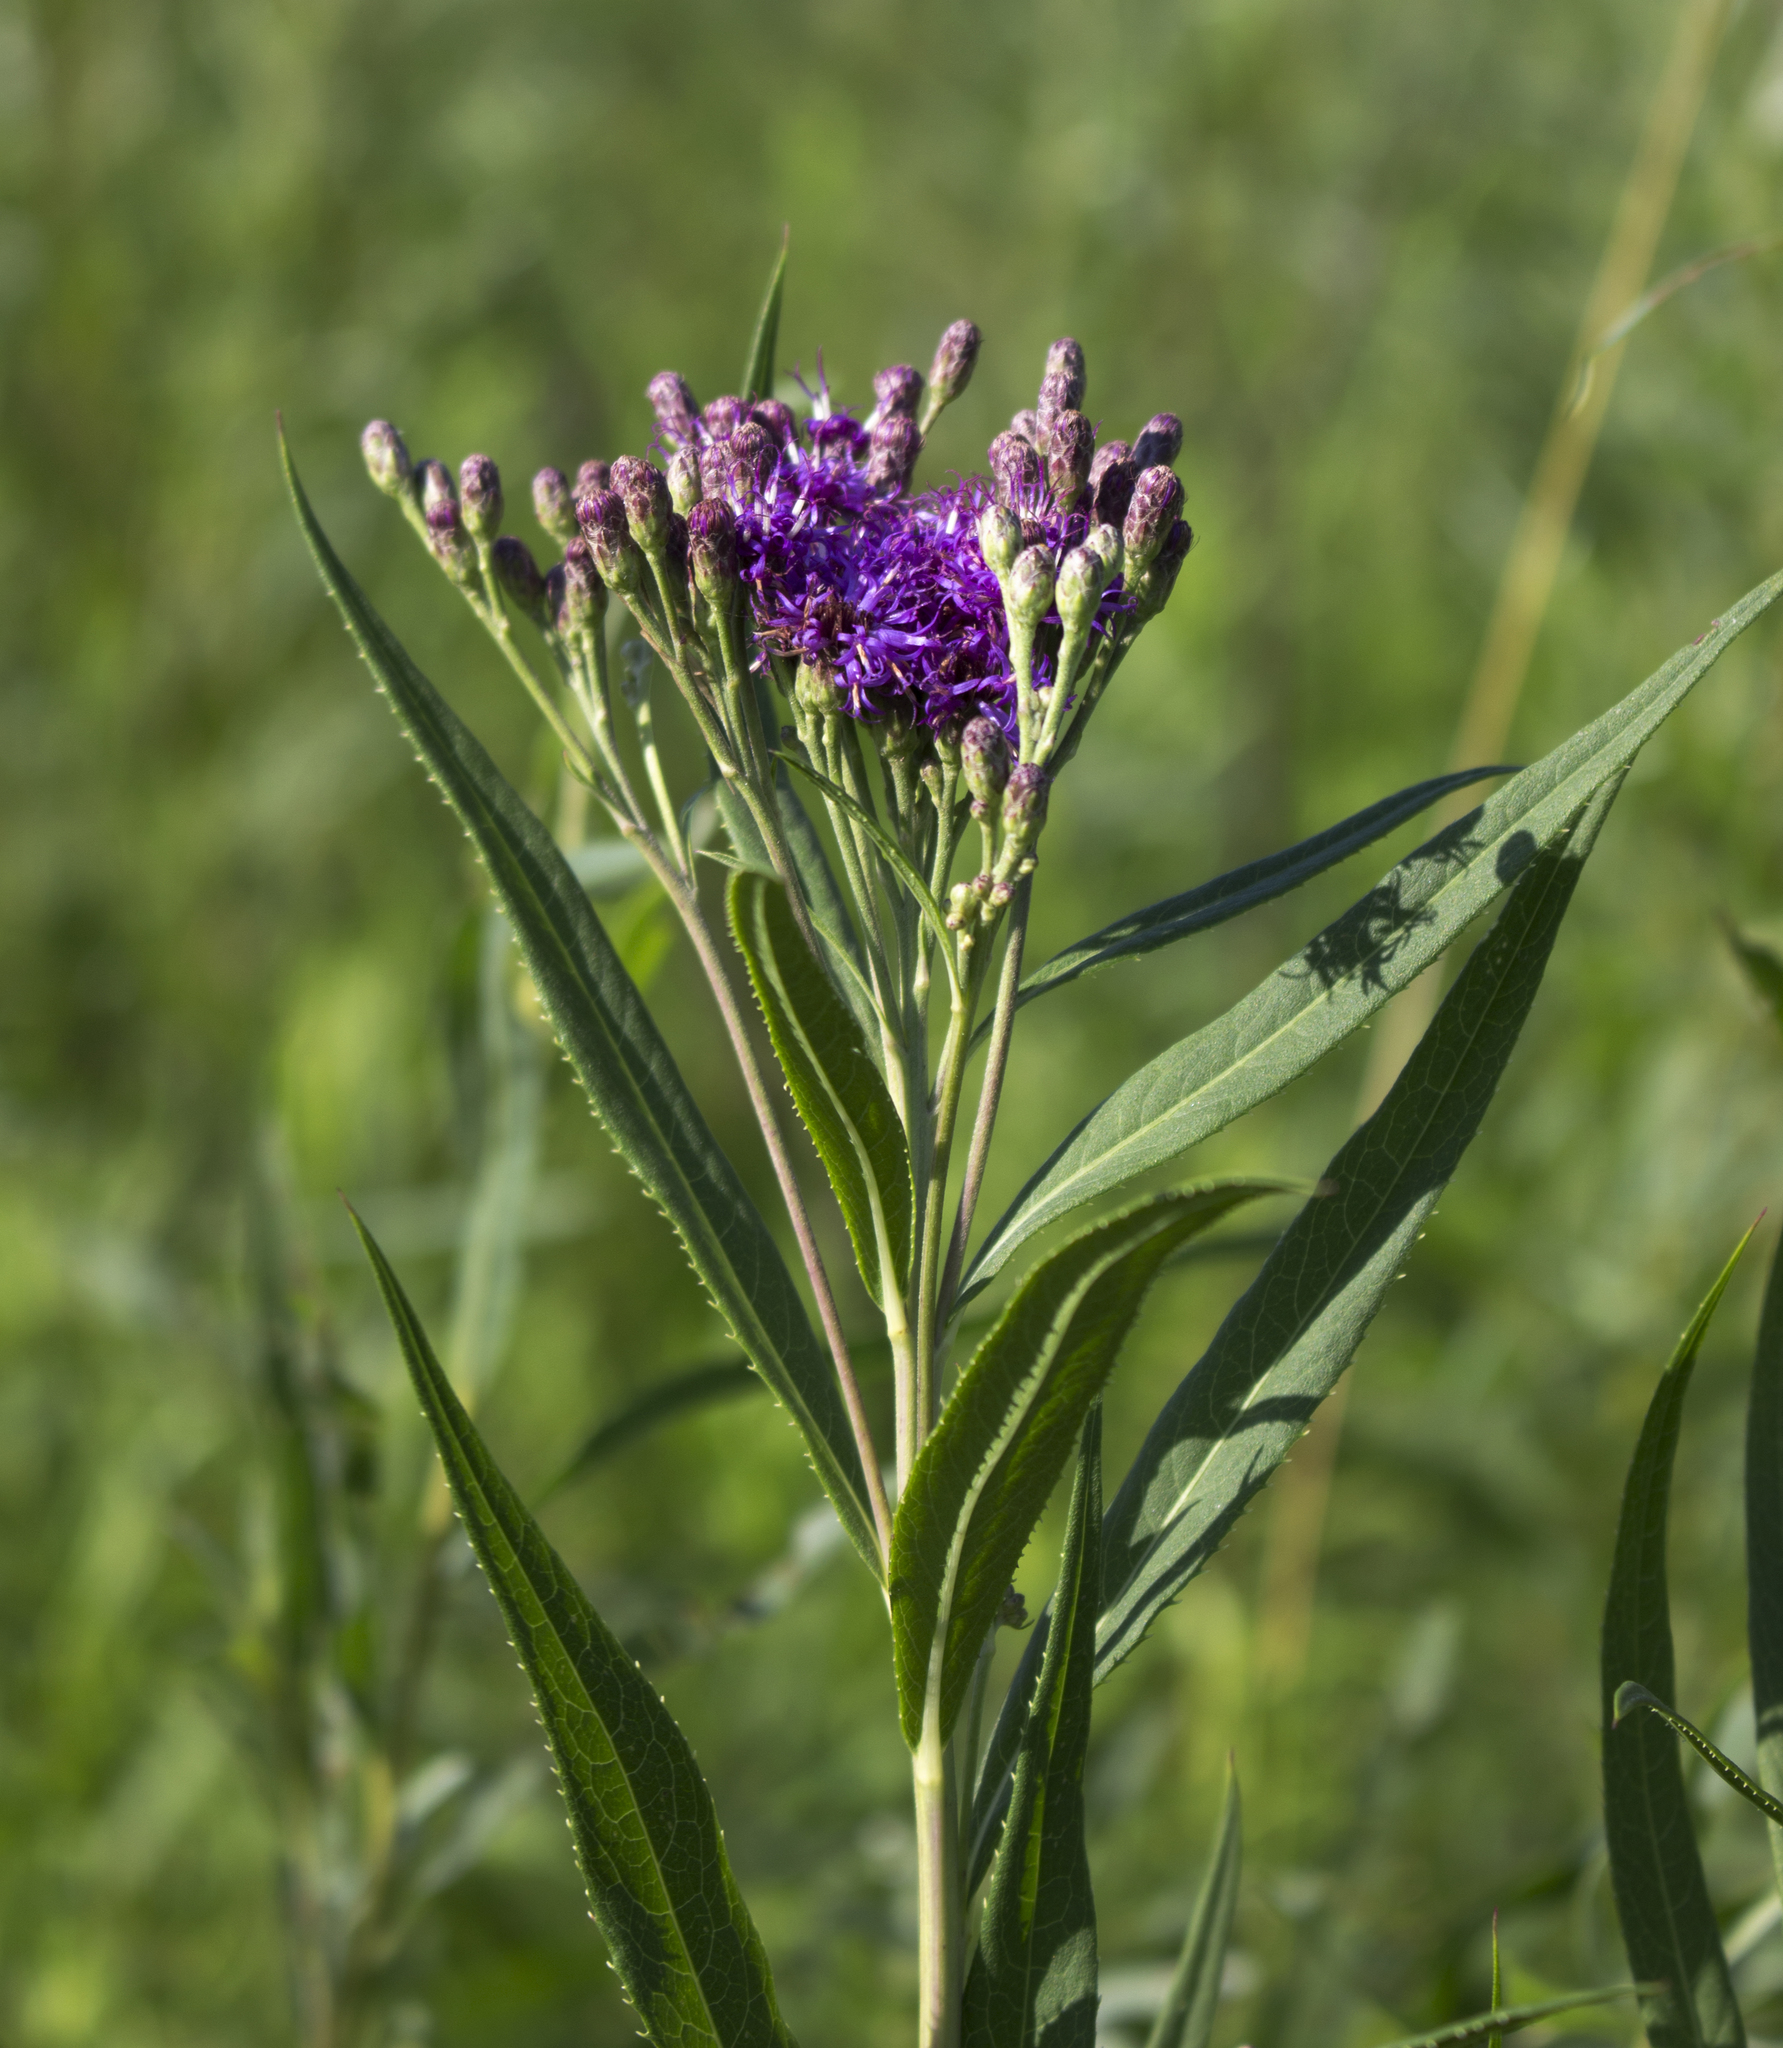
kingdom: Plantae
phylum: Tracheophyta
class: Magnoliopsida
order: Asterales
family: Asteraceae
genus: Vernonia
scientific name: Vernonia fasciculata
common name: Fascicled ironweed
